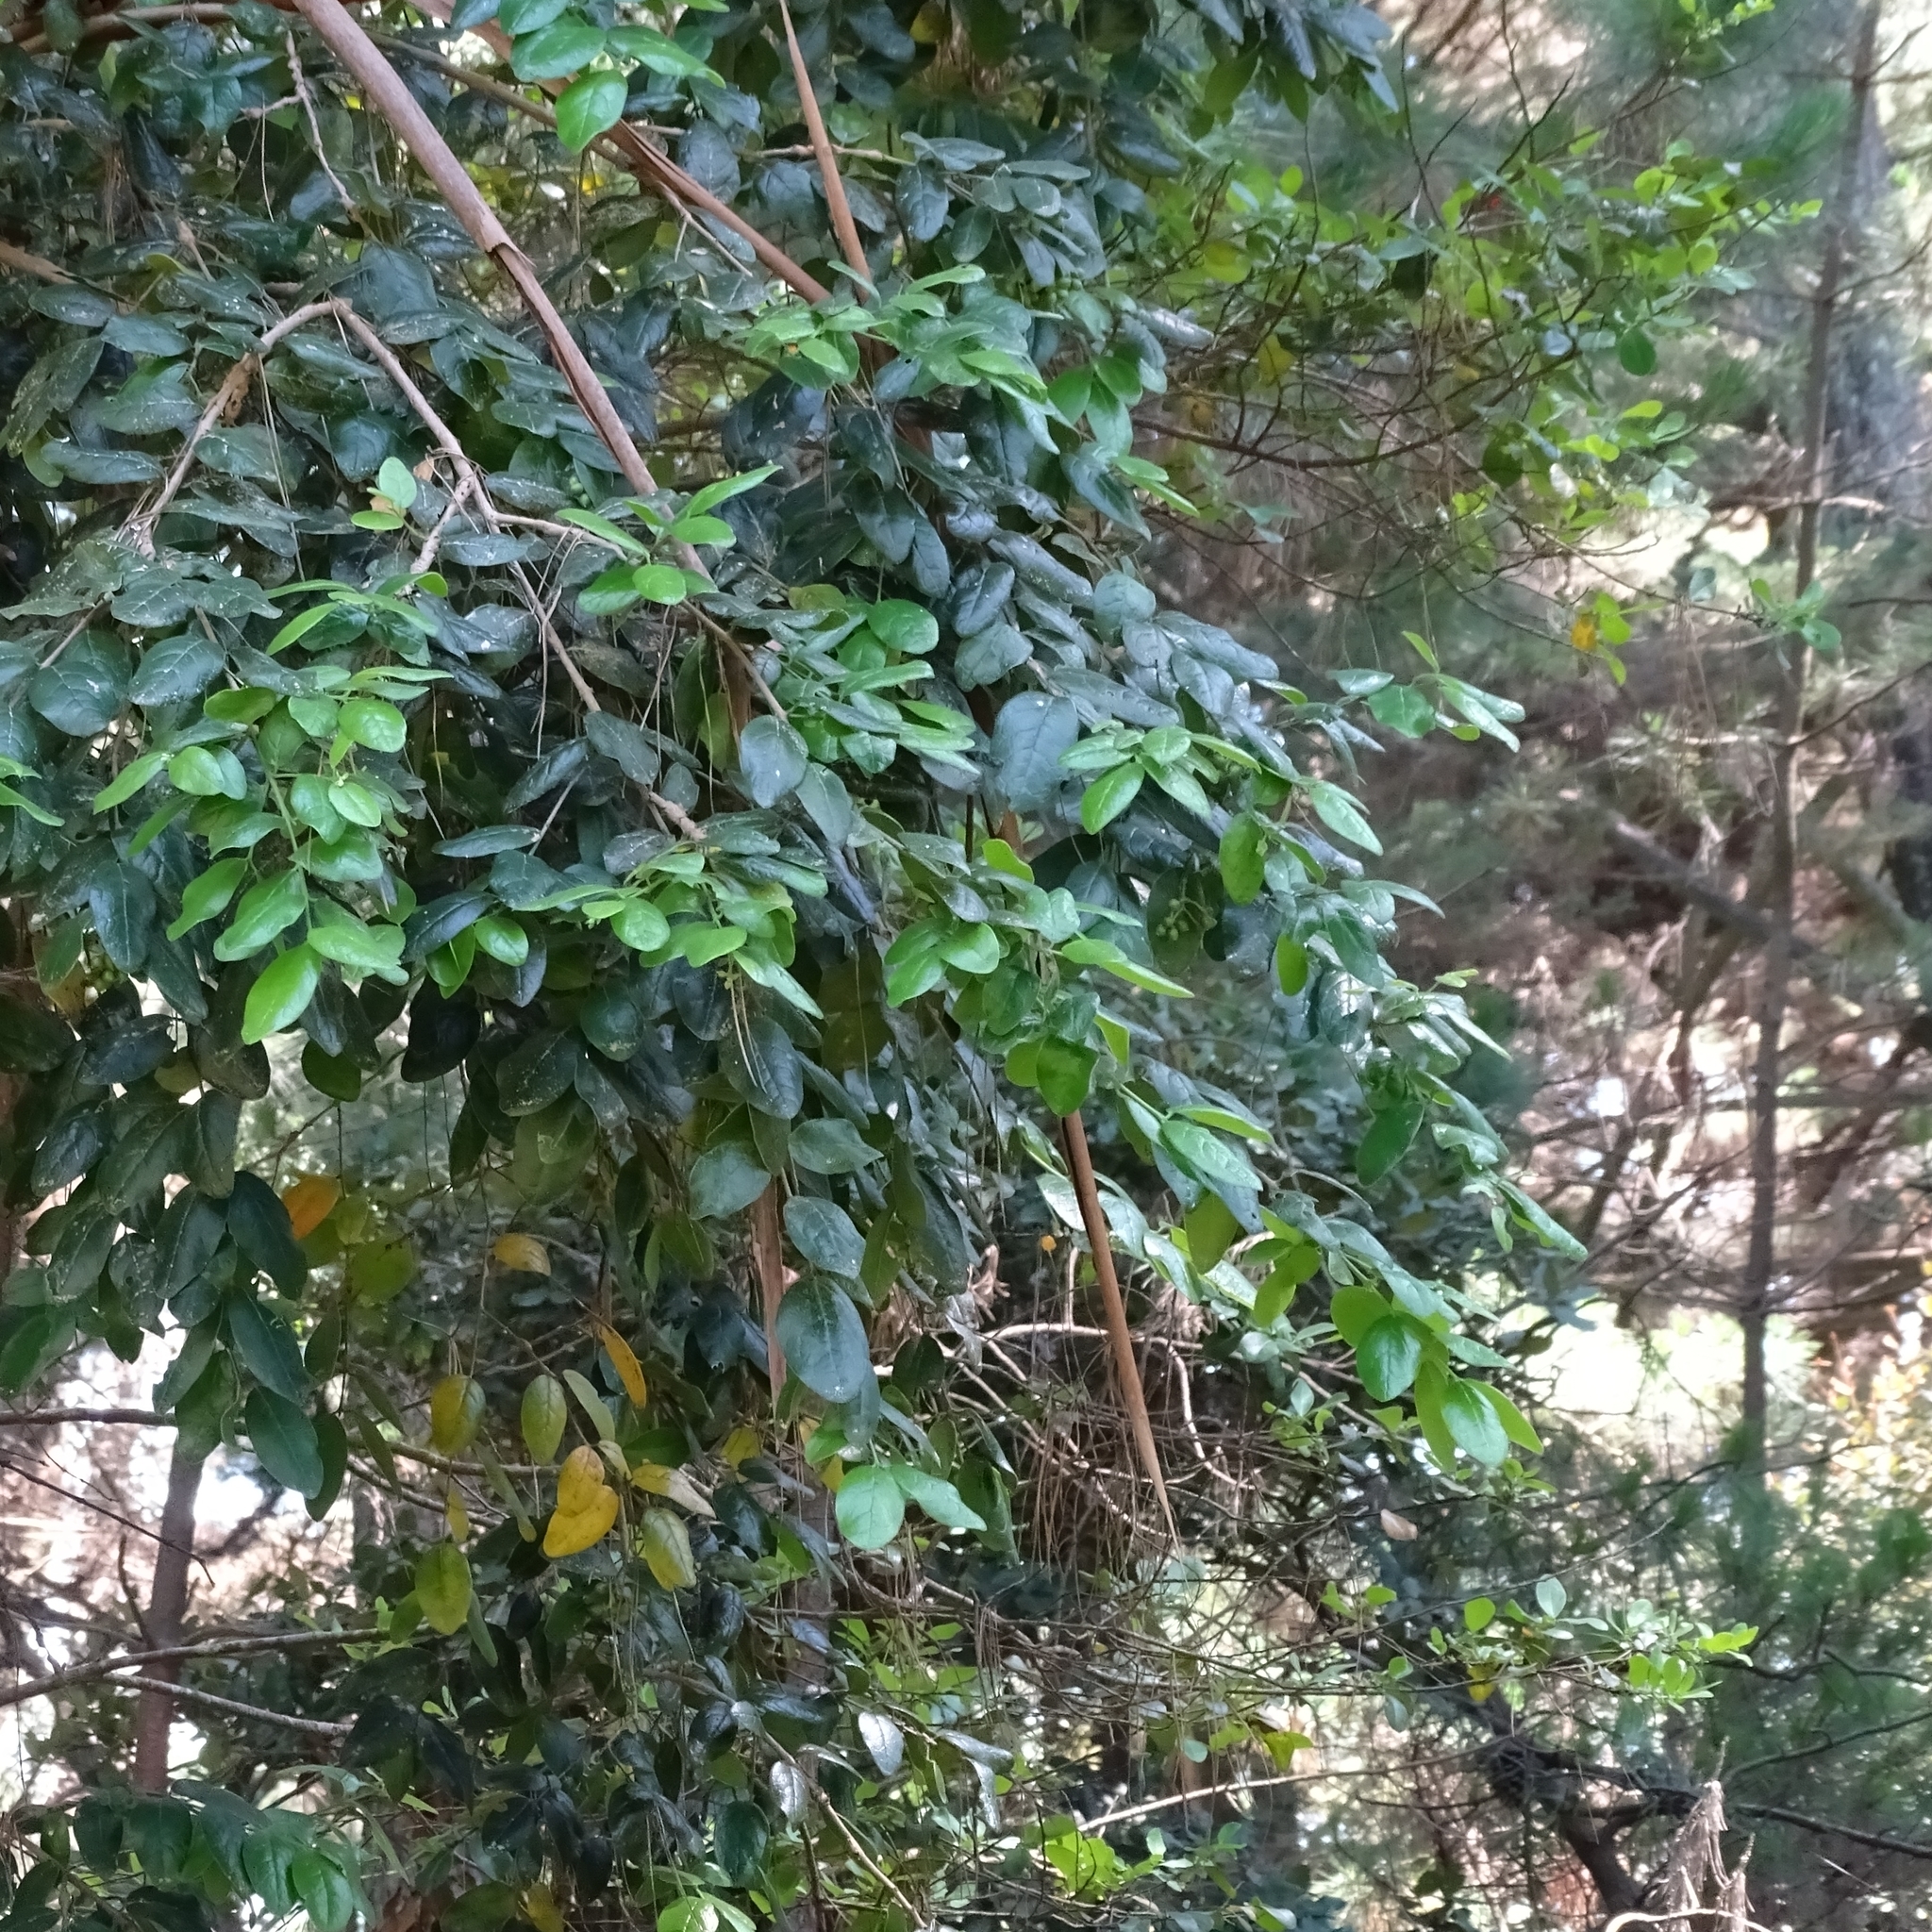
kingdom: Plantae
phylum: Tracheophyta
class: Magnoliopsida
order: Laurales
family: Monimiaceae
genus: Peumus
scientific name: Peumus boldus
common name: Boldo
